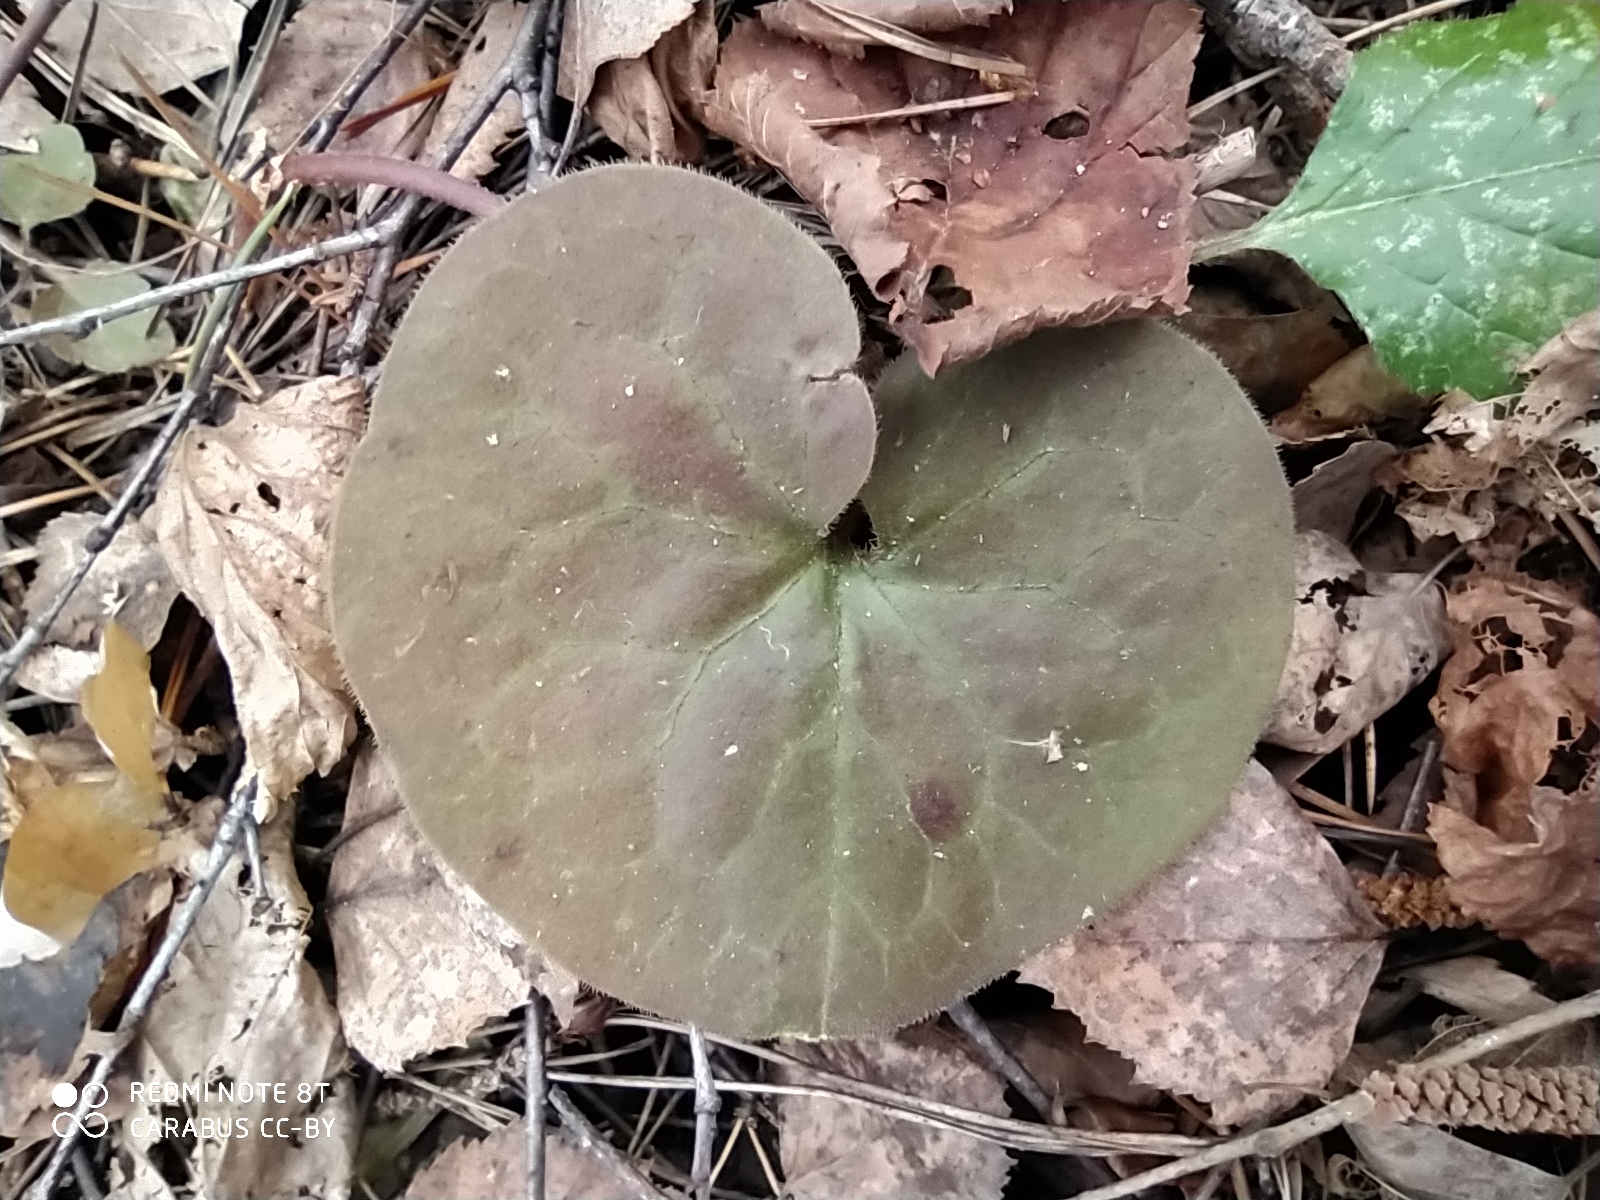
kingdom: Plantae
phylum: Tracheophyta
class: Magnoliopsida
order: Piperales
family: Aristolochiaceae
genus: Asarum
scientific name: Asarum europaeum
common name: Asarabacca
